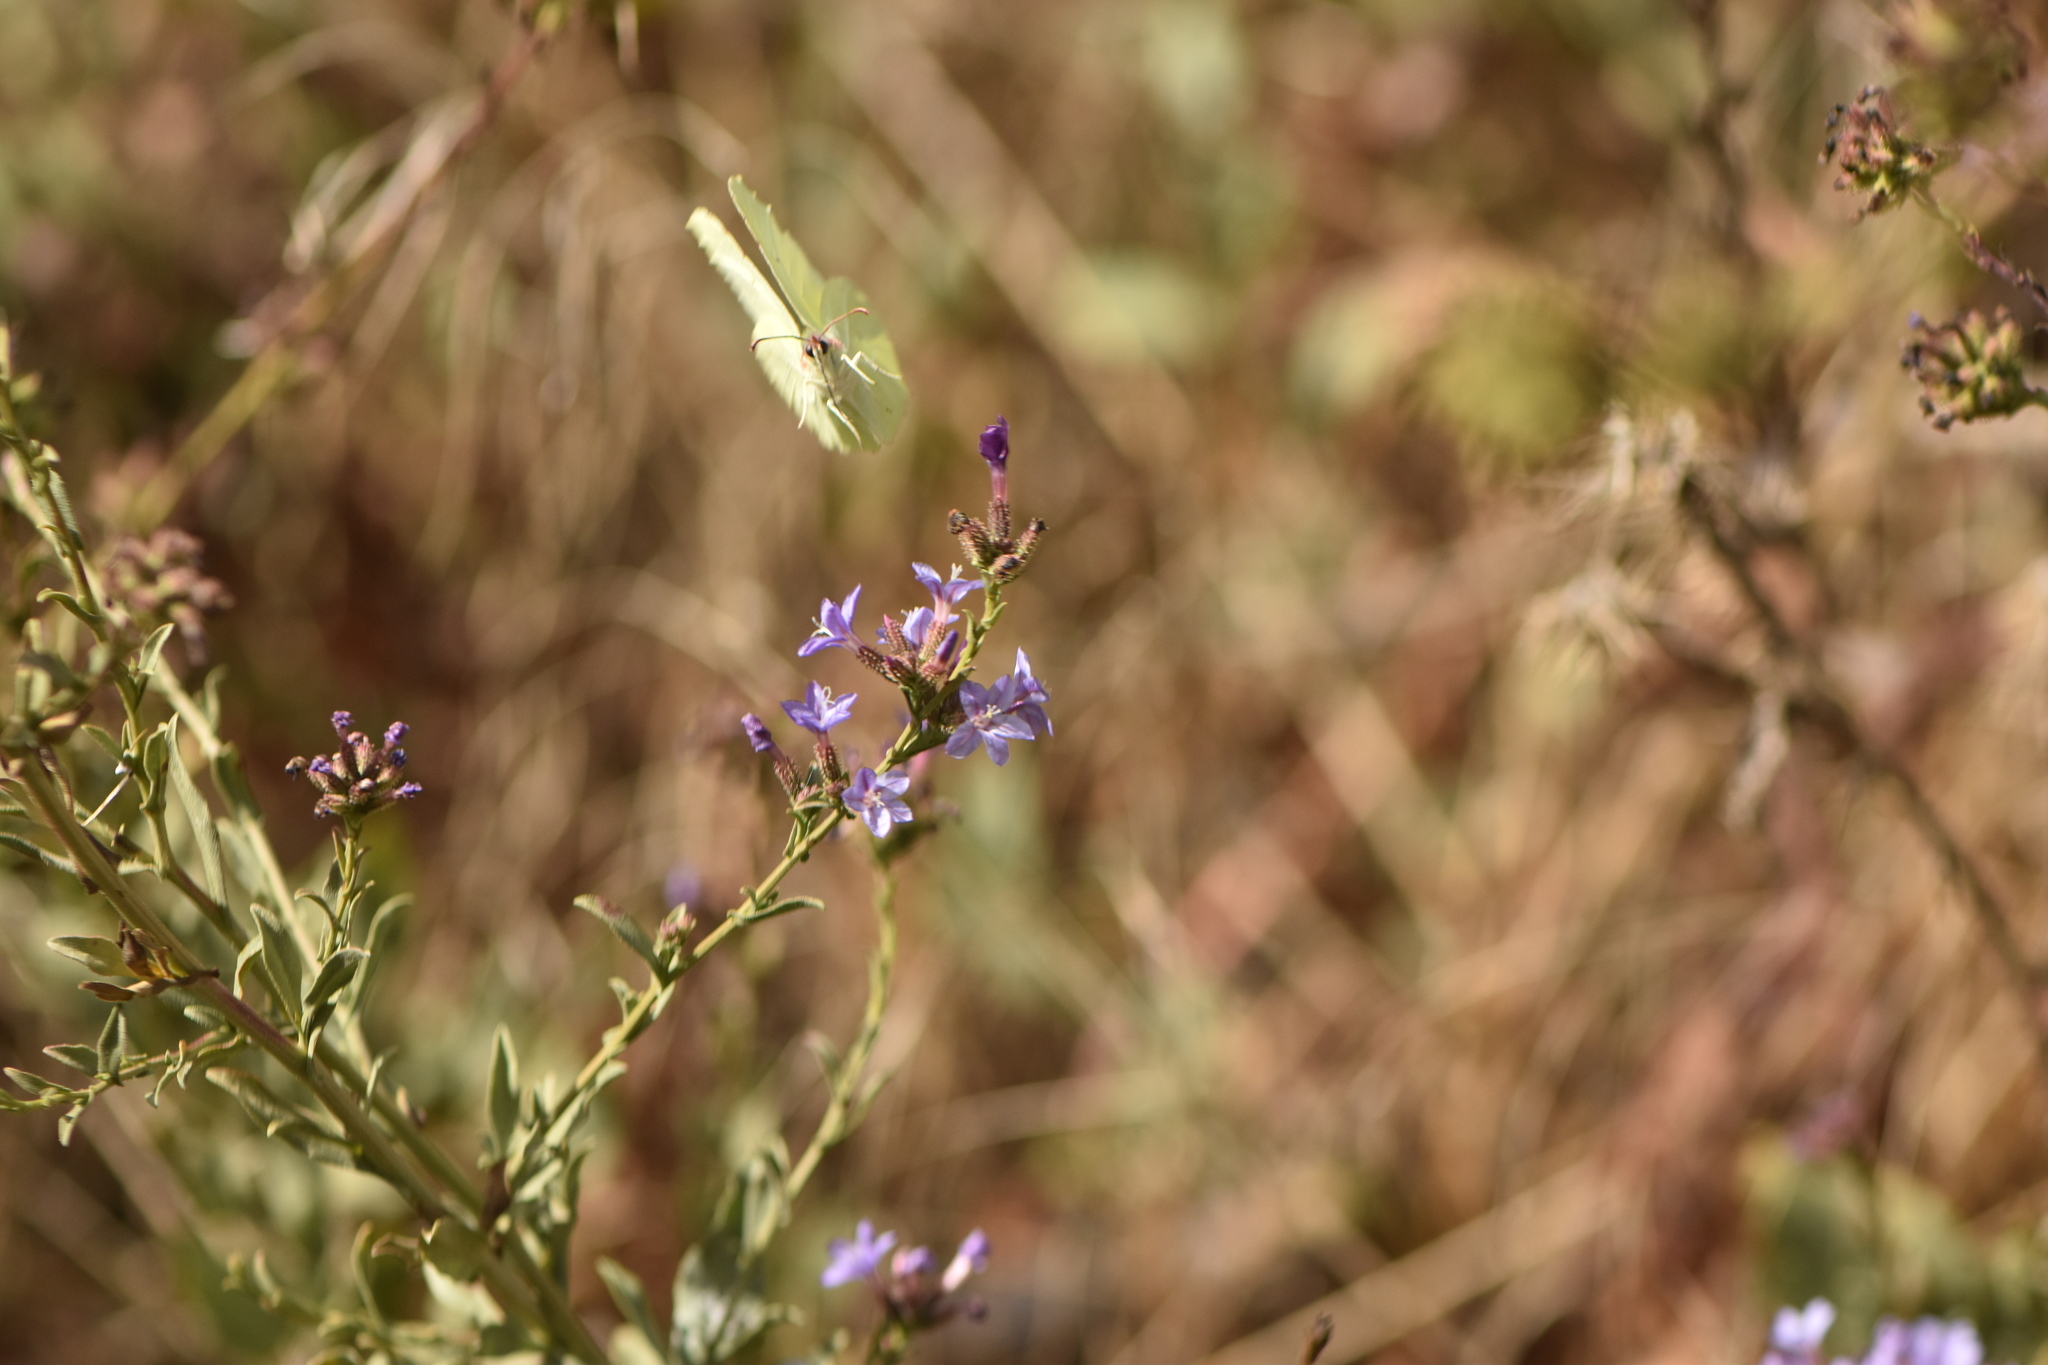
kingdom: Animalia
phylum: Arthropoda
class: Insecta
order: Lepidoptera
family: Pieridae
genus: Gonepteryx
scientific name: Gonepteryx rhamni
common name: Brimstone
